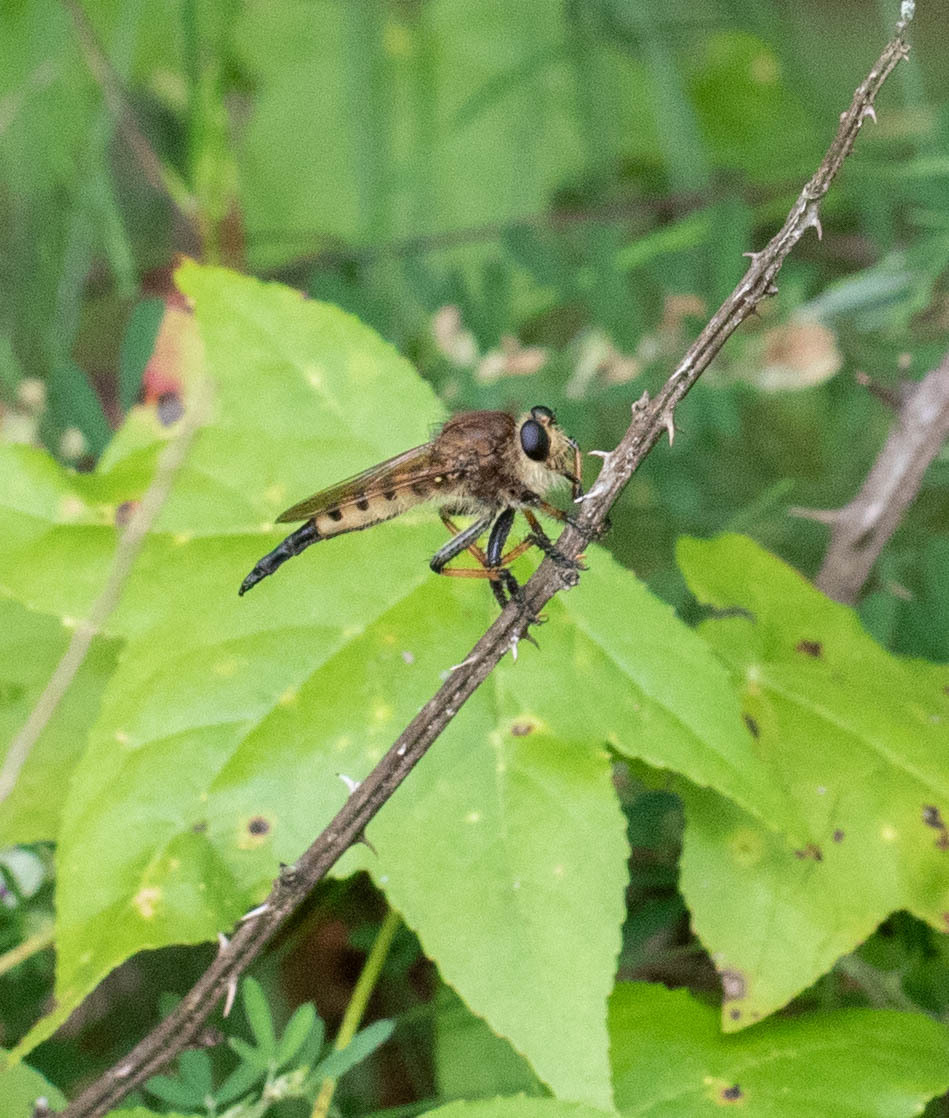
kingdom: Animalia
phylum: Arthropoda
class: Insecta
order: Diptera
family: Asilidae
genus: Promachus
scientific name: Promachus rufipes
